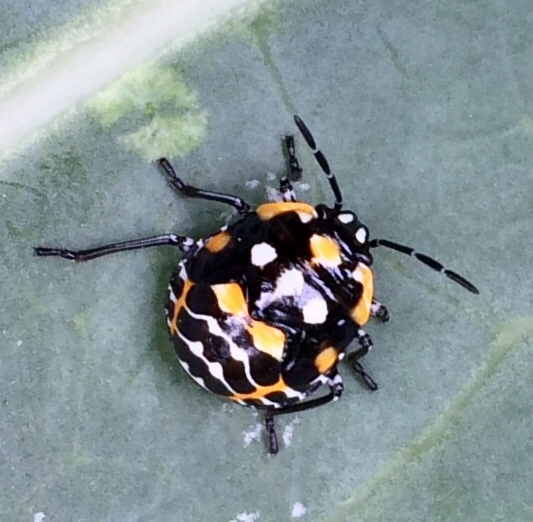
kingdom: Animalia
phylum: Arthropoda
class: Insecta
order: Hemiptera
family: Pentatomidae
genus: Murgantia
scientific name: Murgantia histrionica
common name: Harlequin bug
